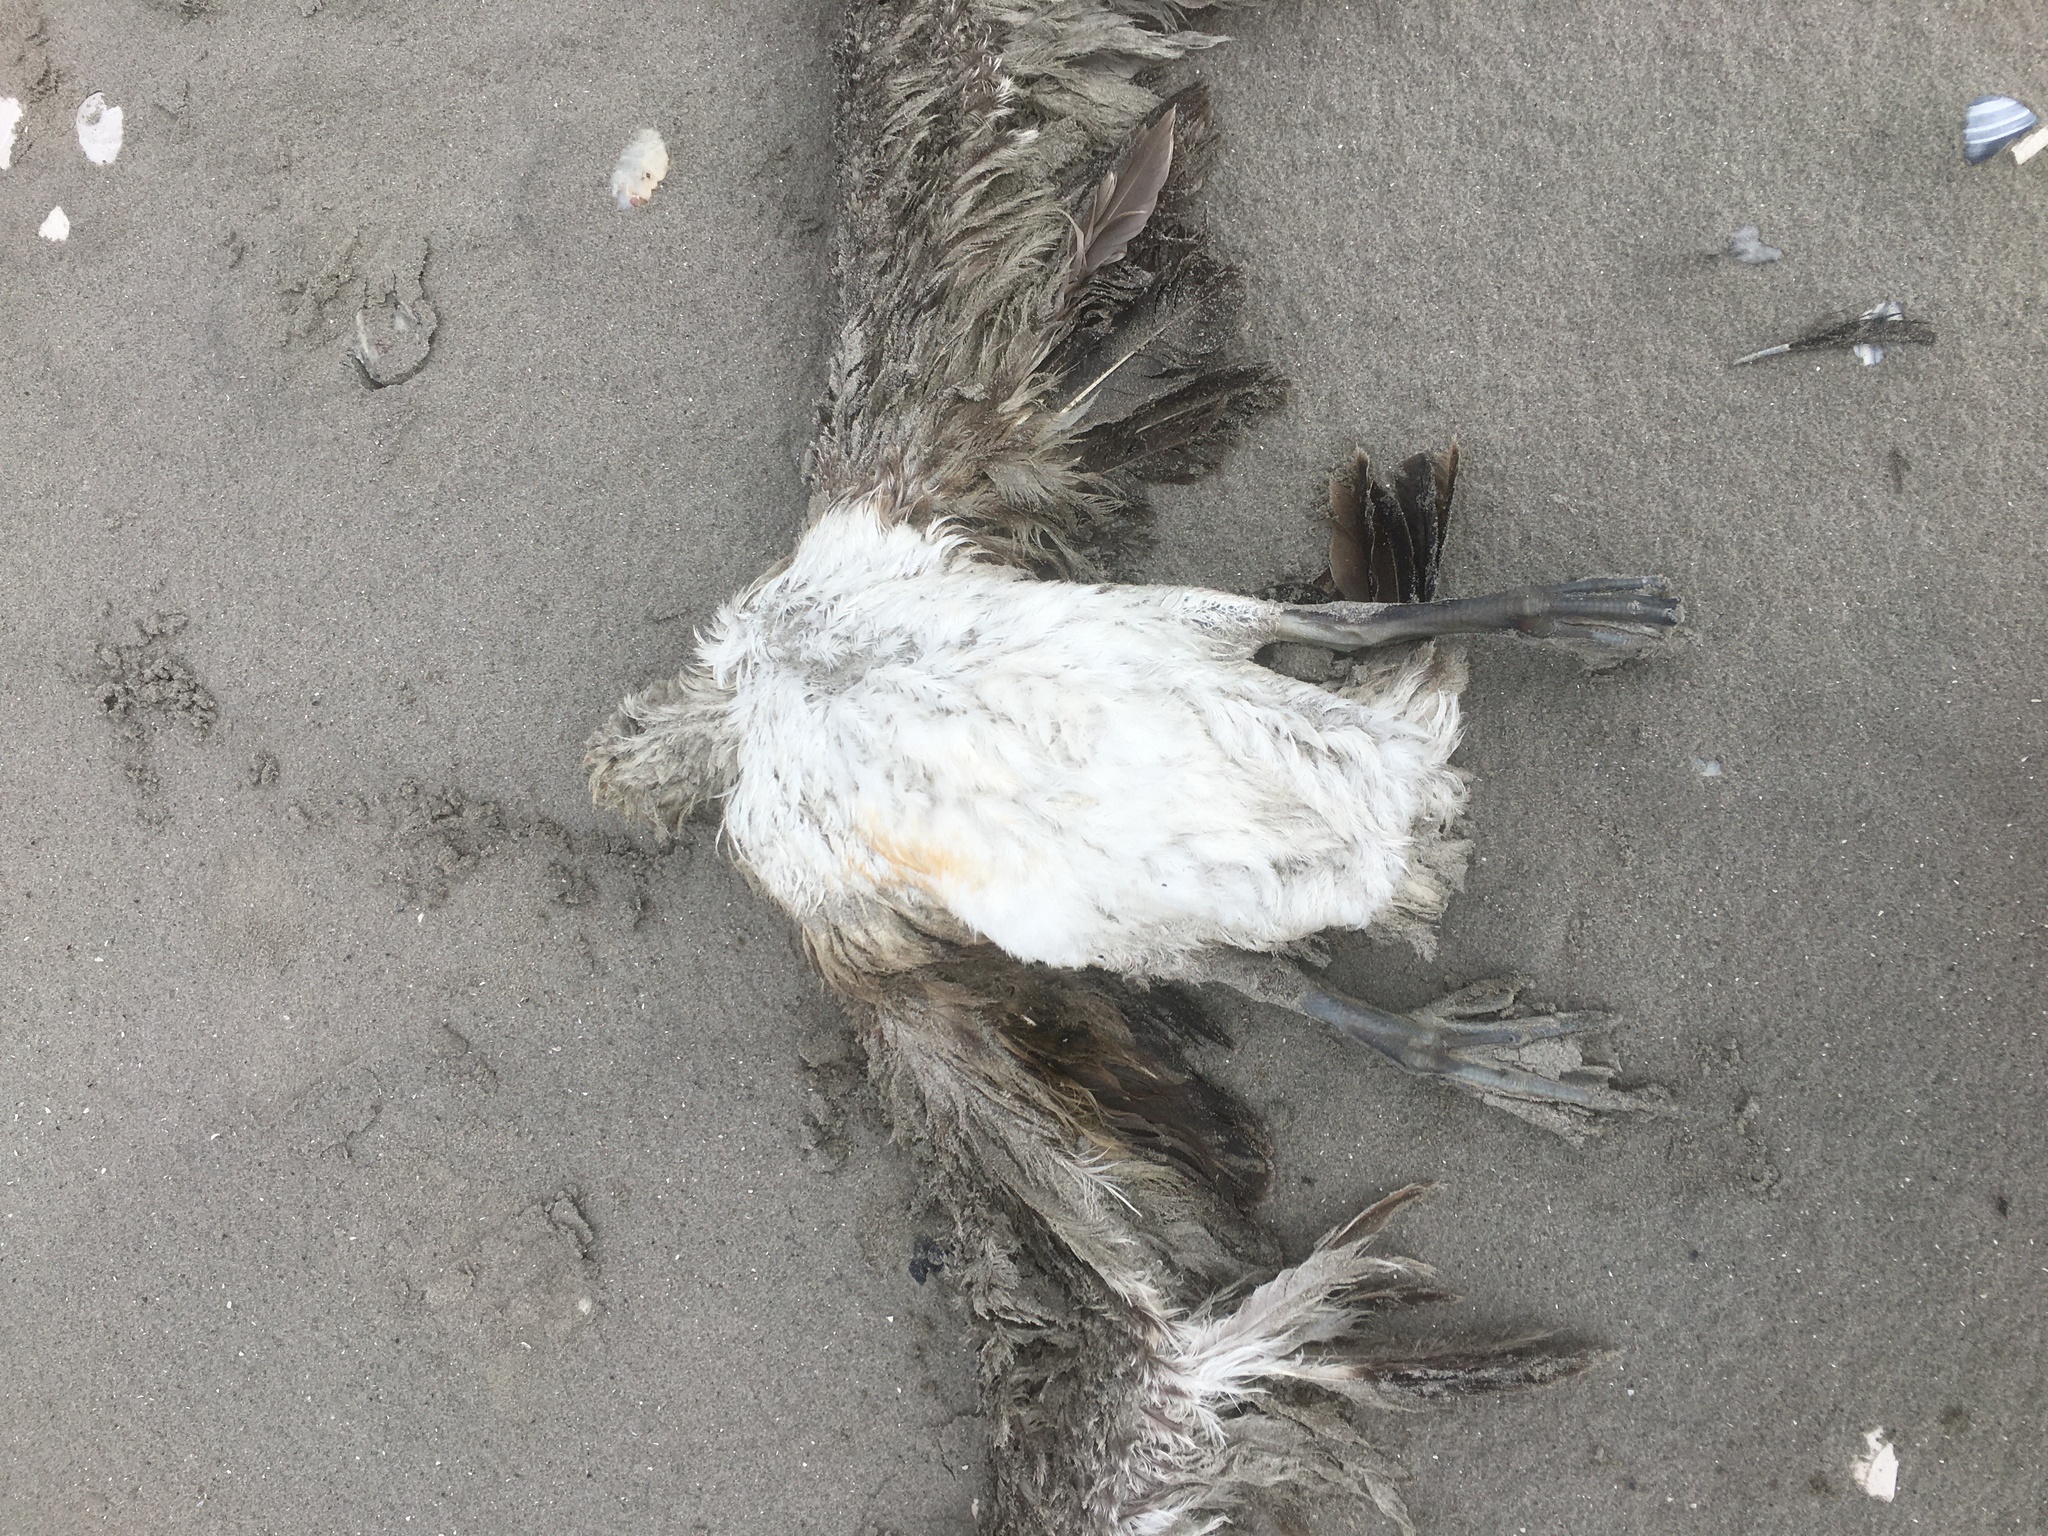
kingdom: Animalia
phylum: Chordata
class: Aves
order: Suliformes
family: Sulidae
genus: Morus
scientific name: Morus bassanus
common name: Northern gannet
